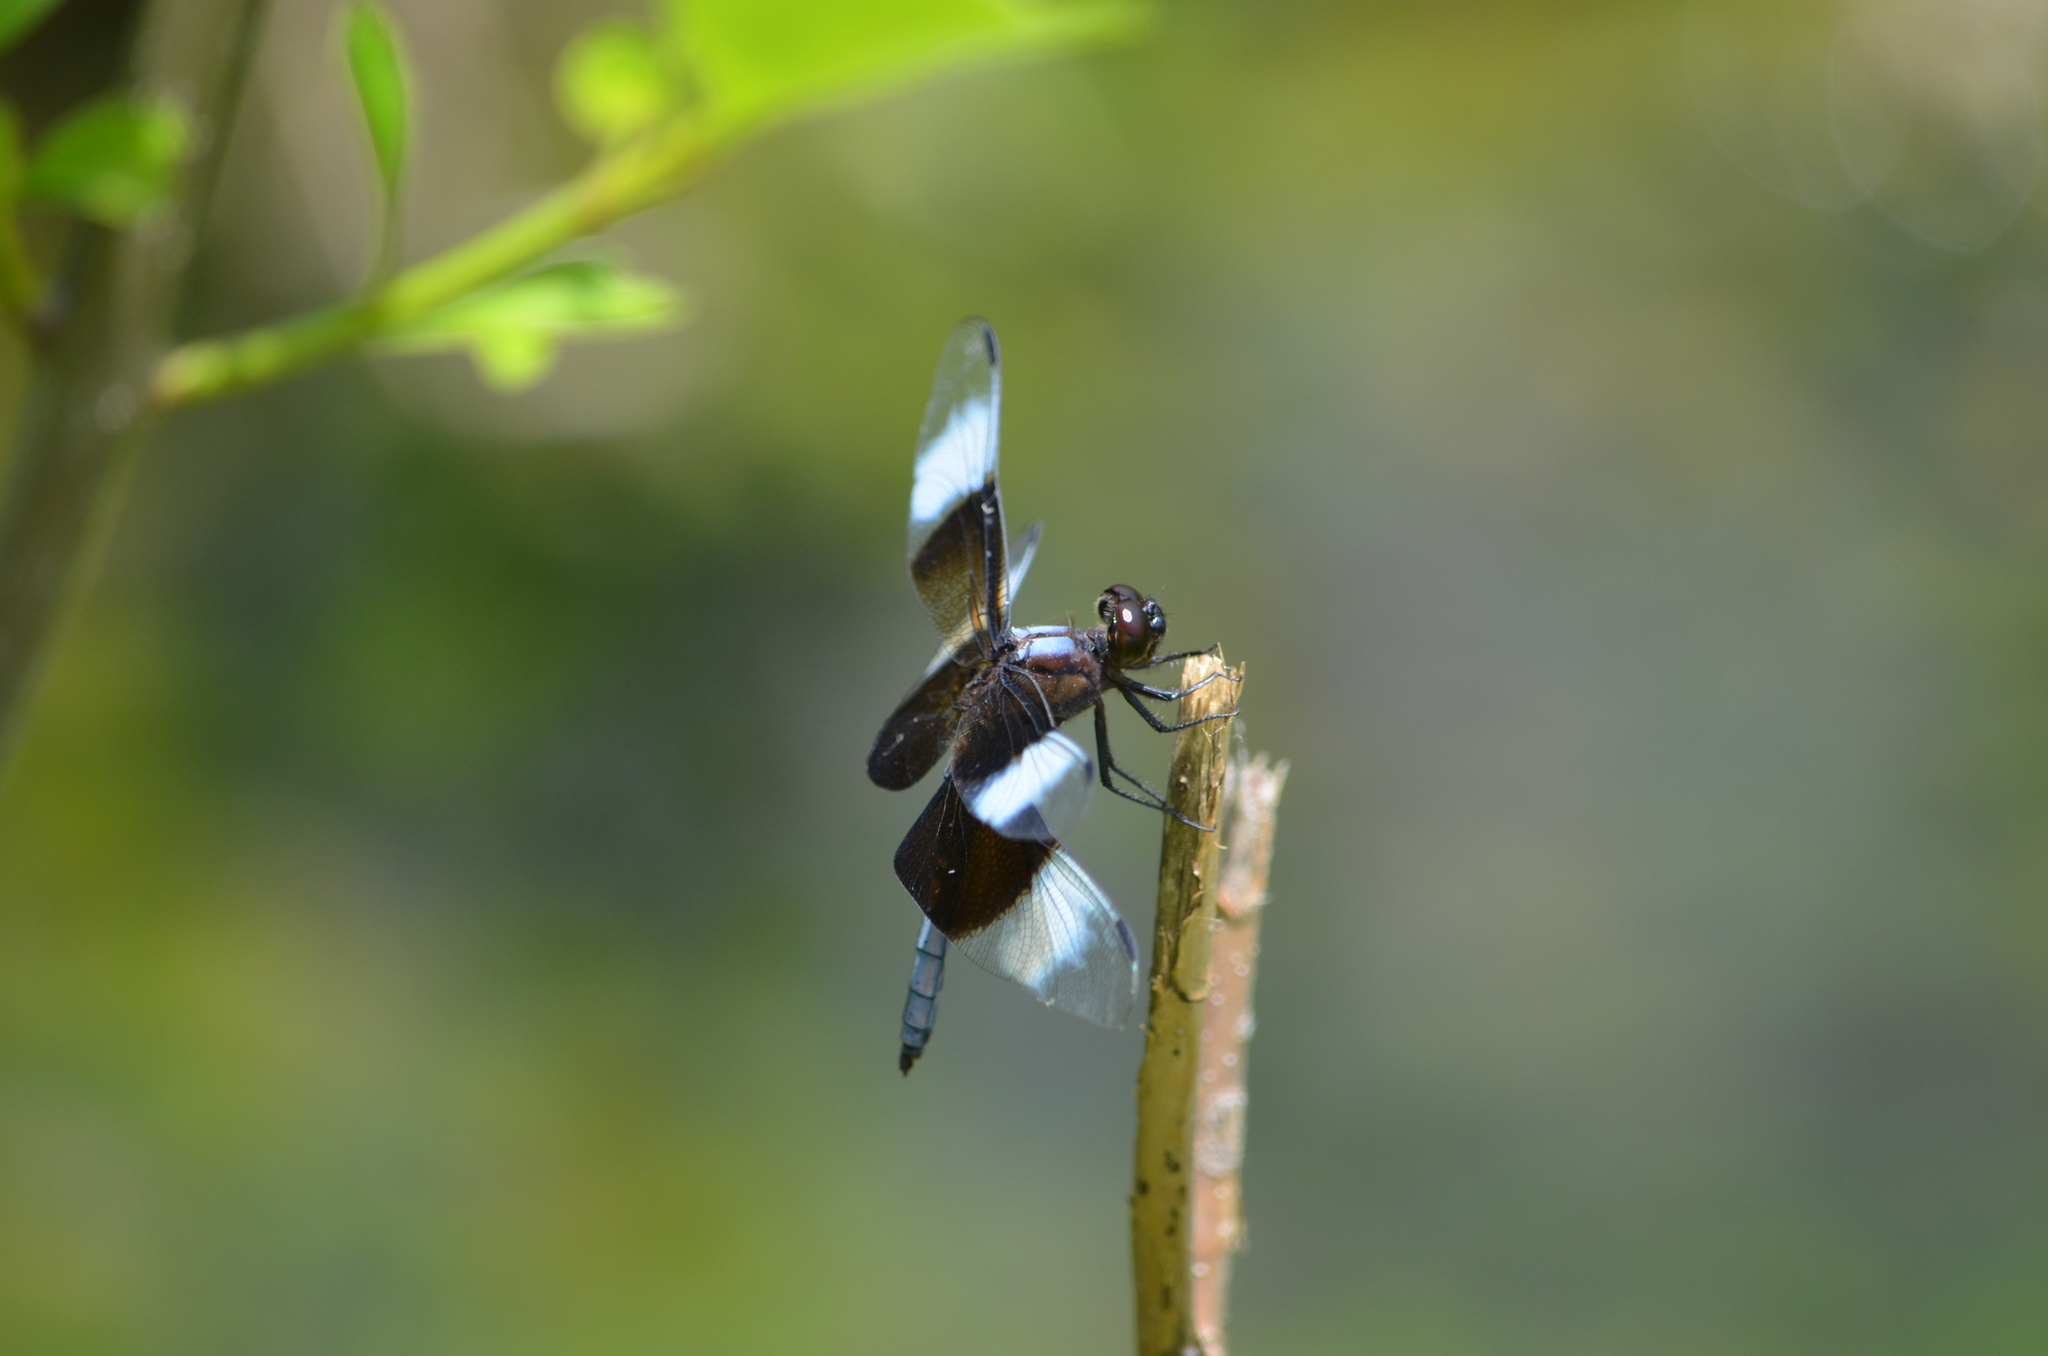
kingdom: Animalia
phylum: Arthropoda
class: Insecta
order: Odonata
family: Libellulidae
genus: Libellula
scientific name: Libellula luctuosa
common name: Widow skimmer
